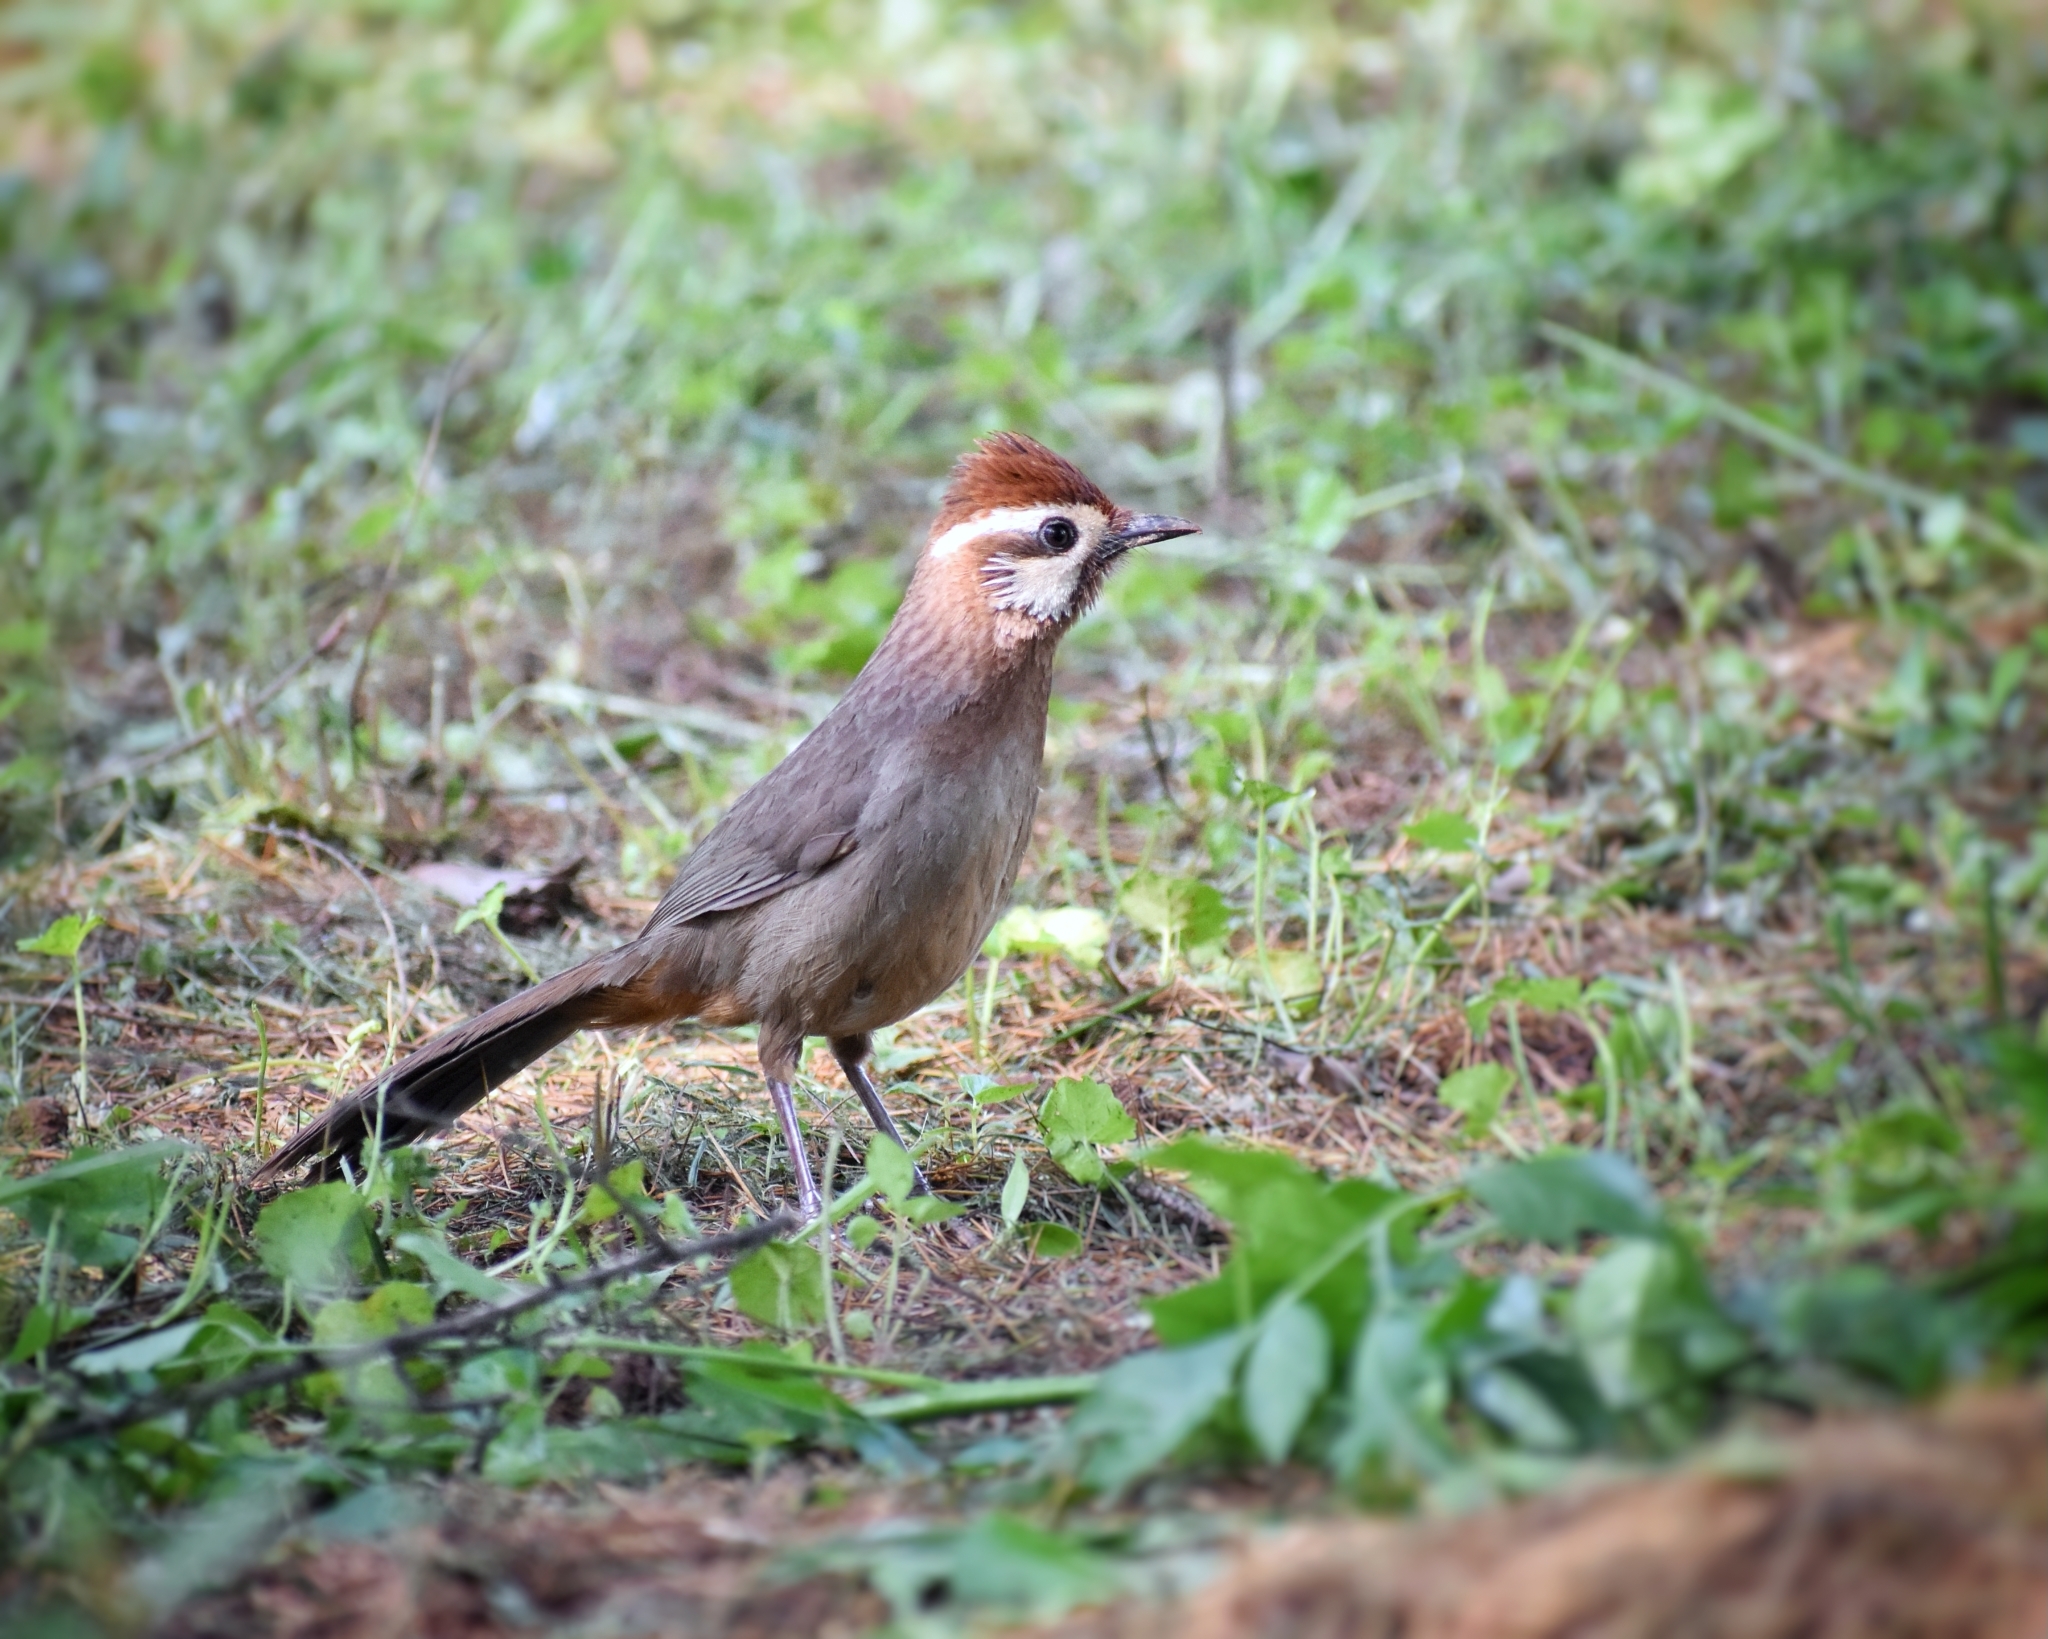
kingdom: Animalia
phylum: Chordata
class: Aves
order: Passeriformes
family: Leiothrichidae
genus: Pterorhinus
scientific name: Pterorhinus sannio
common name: White-browed laughingthrush
